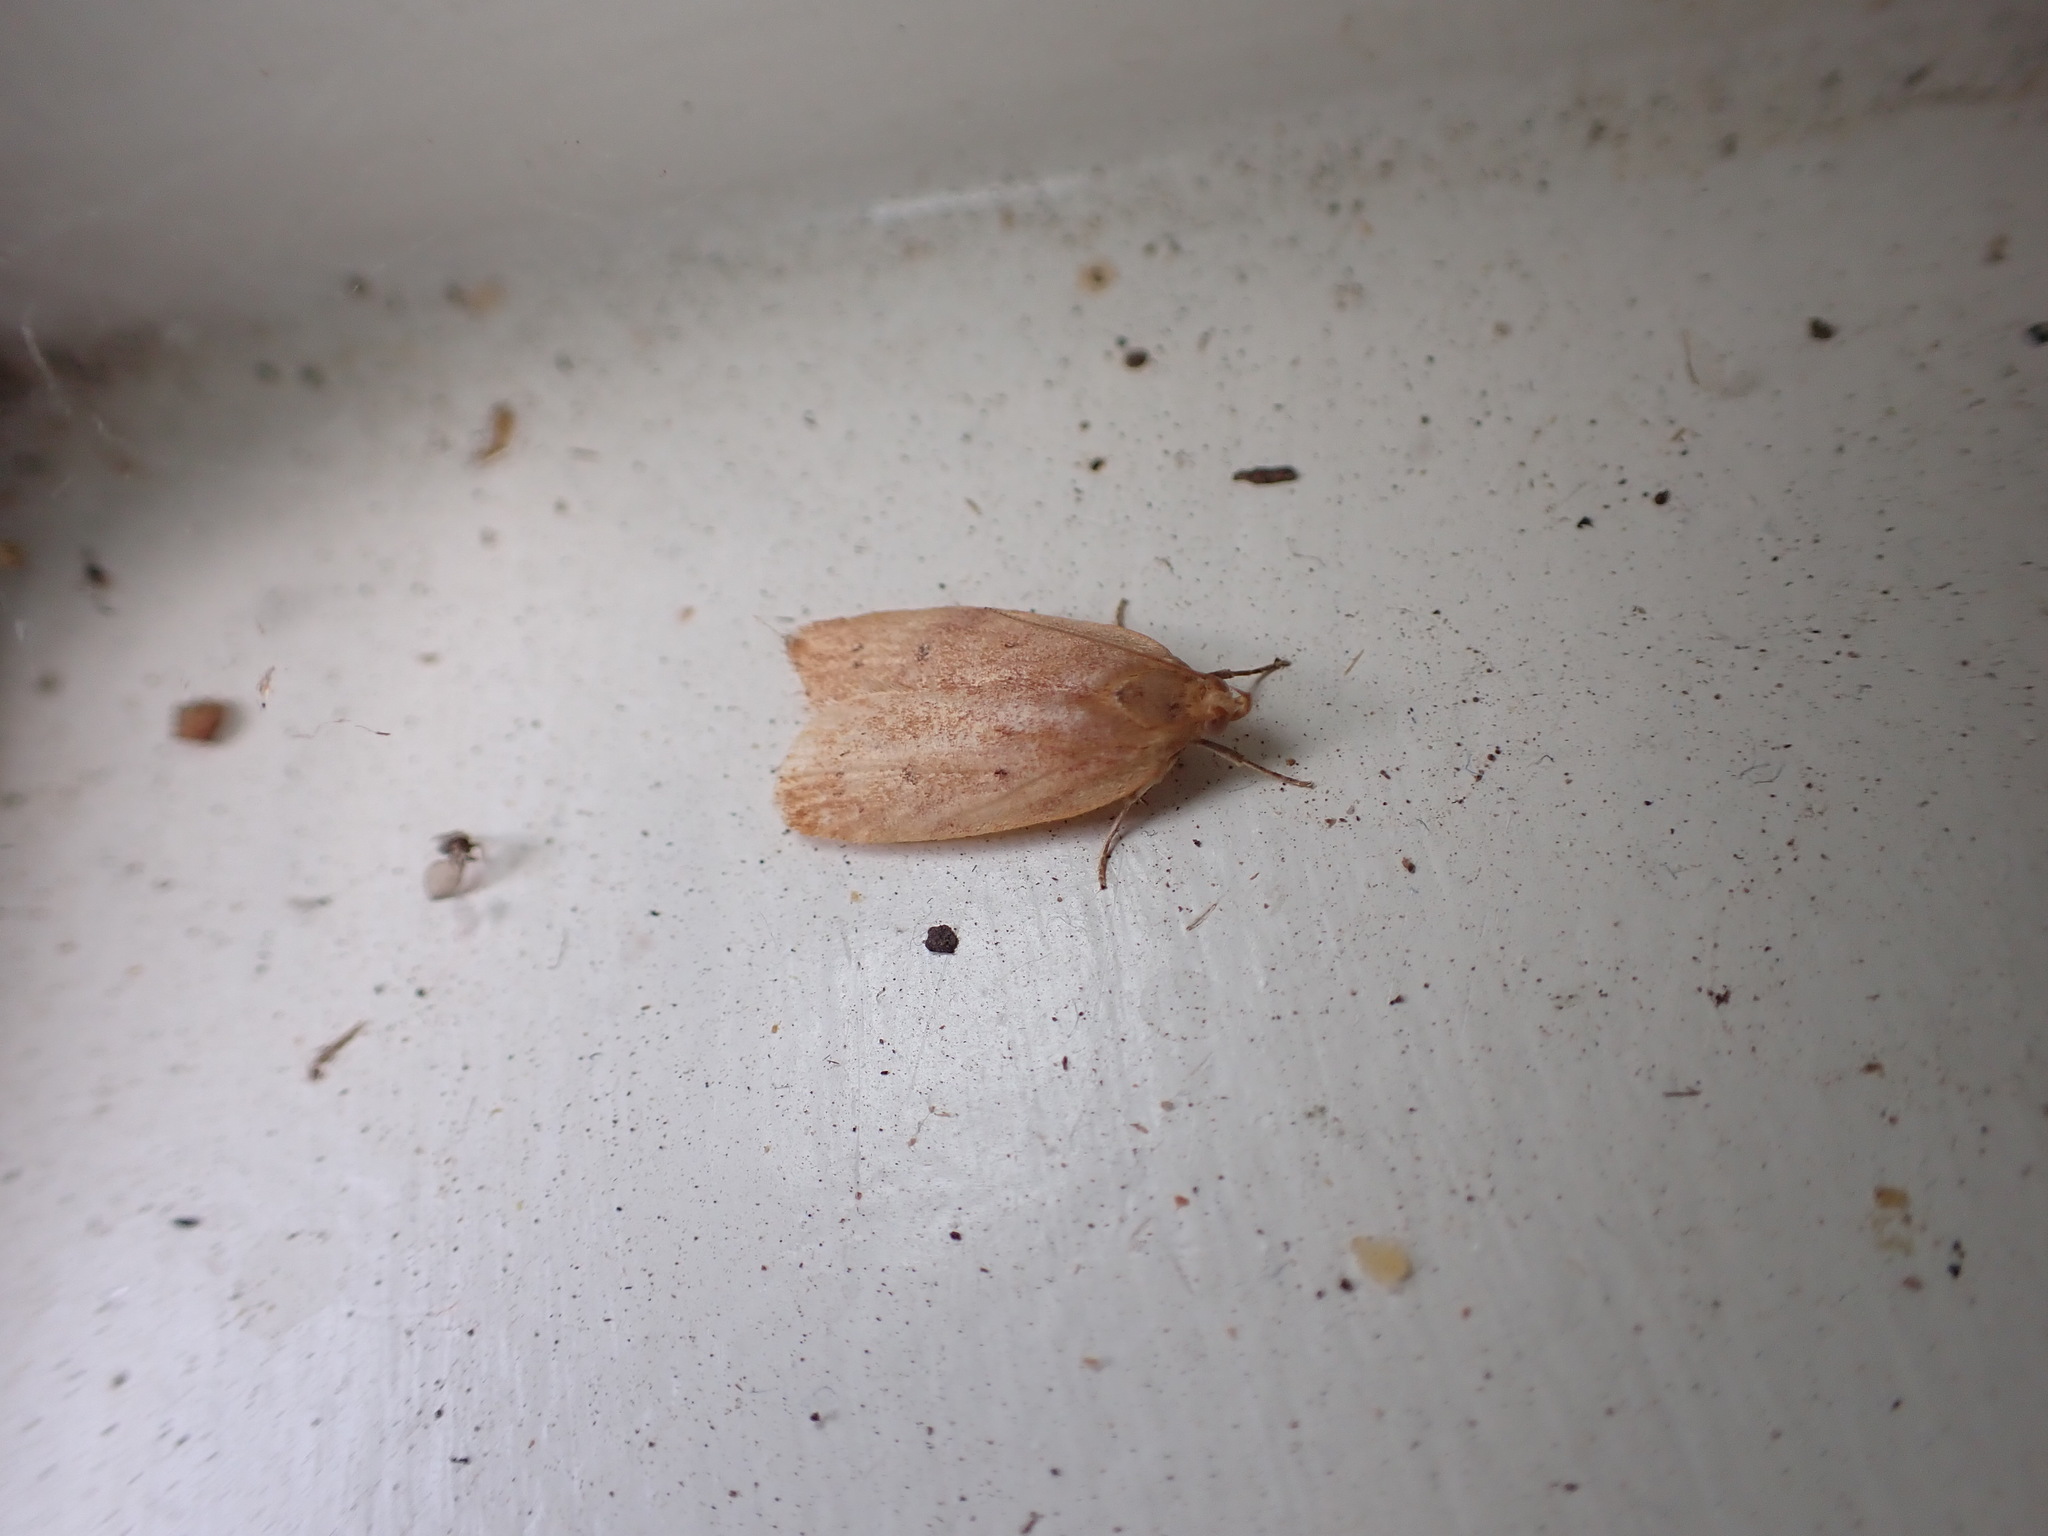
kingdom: Animalia
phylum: Arthropoda
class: Insecta
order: Lepidoptera
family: Depressariidae
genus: Phaeosaces
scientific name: Phaeosaces coarctatella
